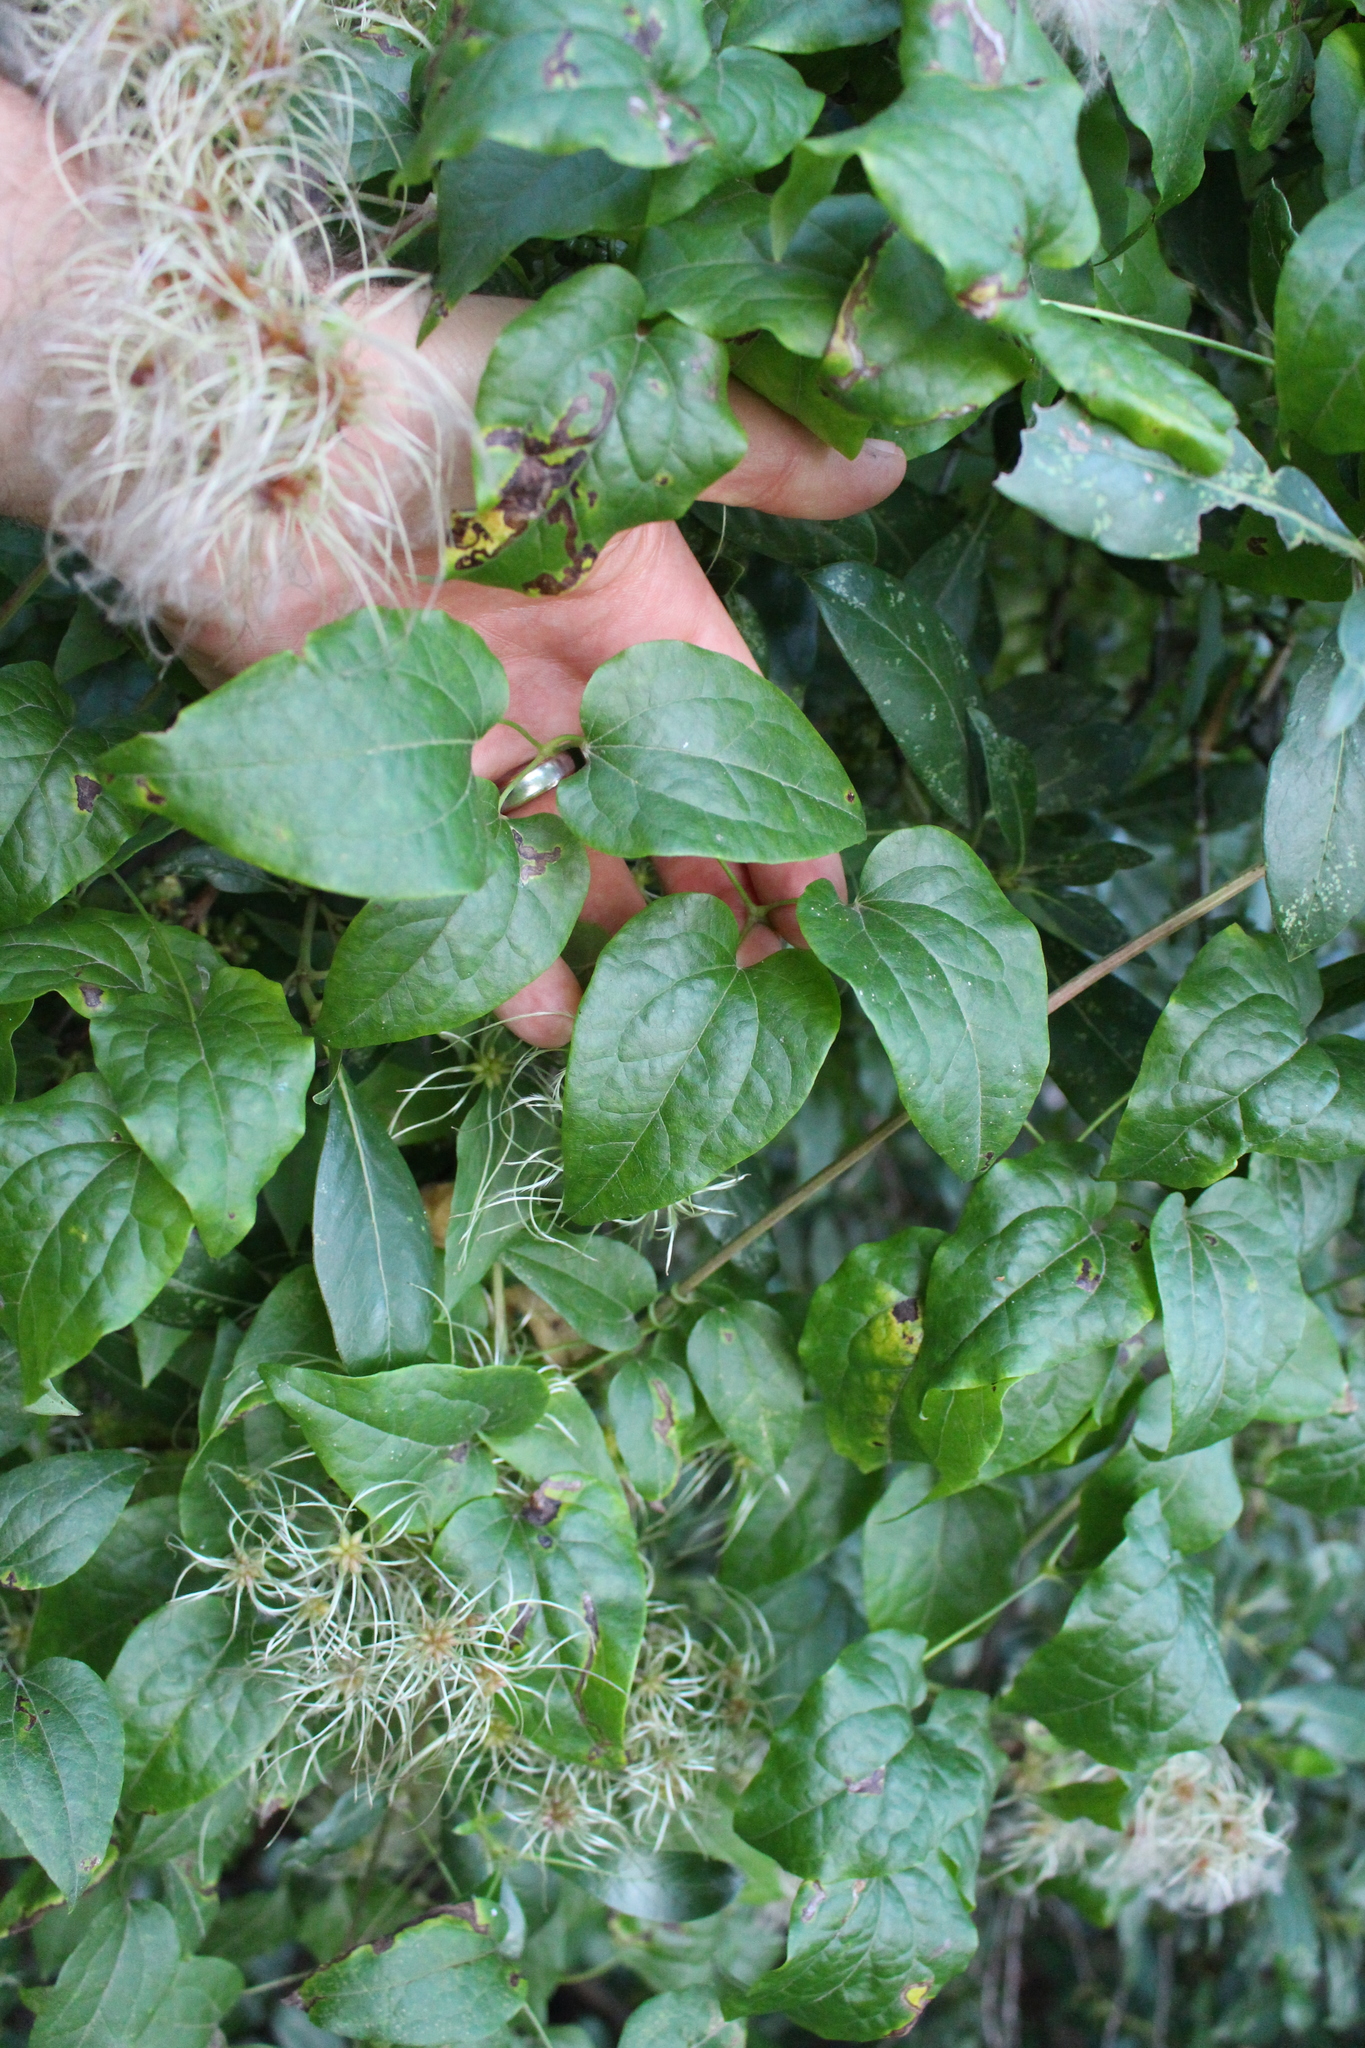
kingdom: Plantae
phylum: Tracheophyta
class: Magnoliopsida
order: Ranunculales
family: Ranunculaceae
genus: Clematis
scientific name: Clematis vitalba
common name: Evergreen clematis
